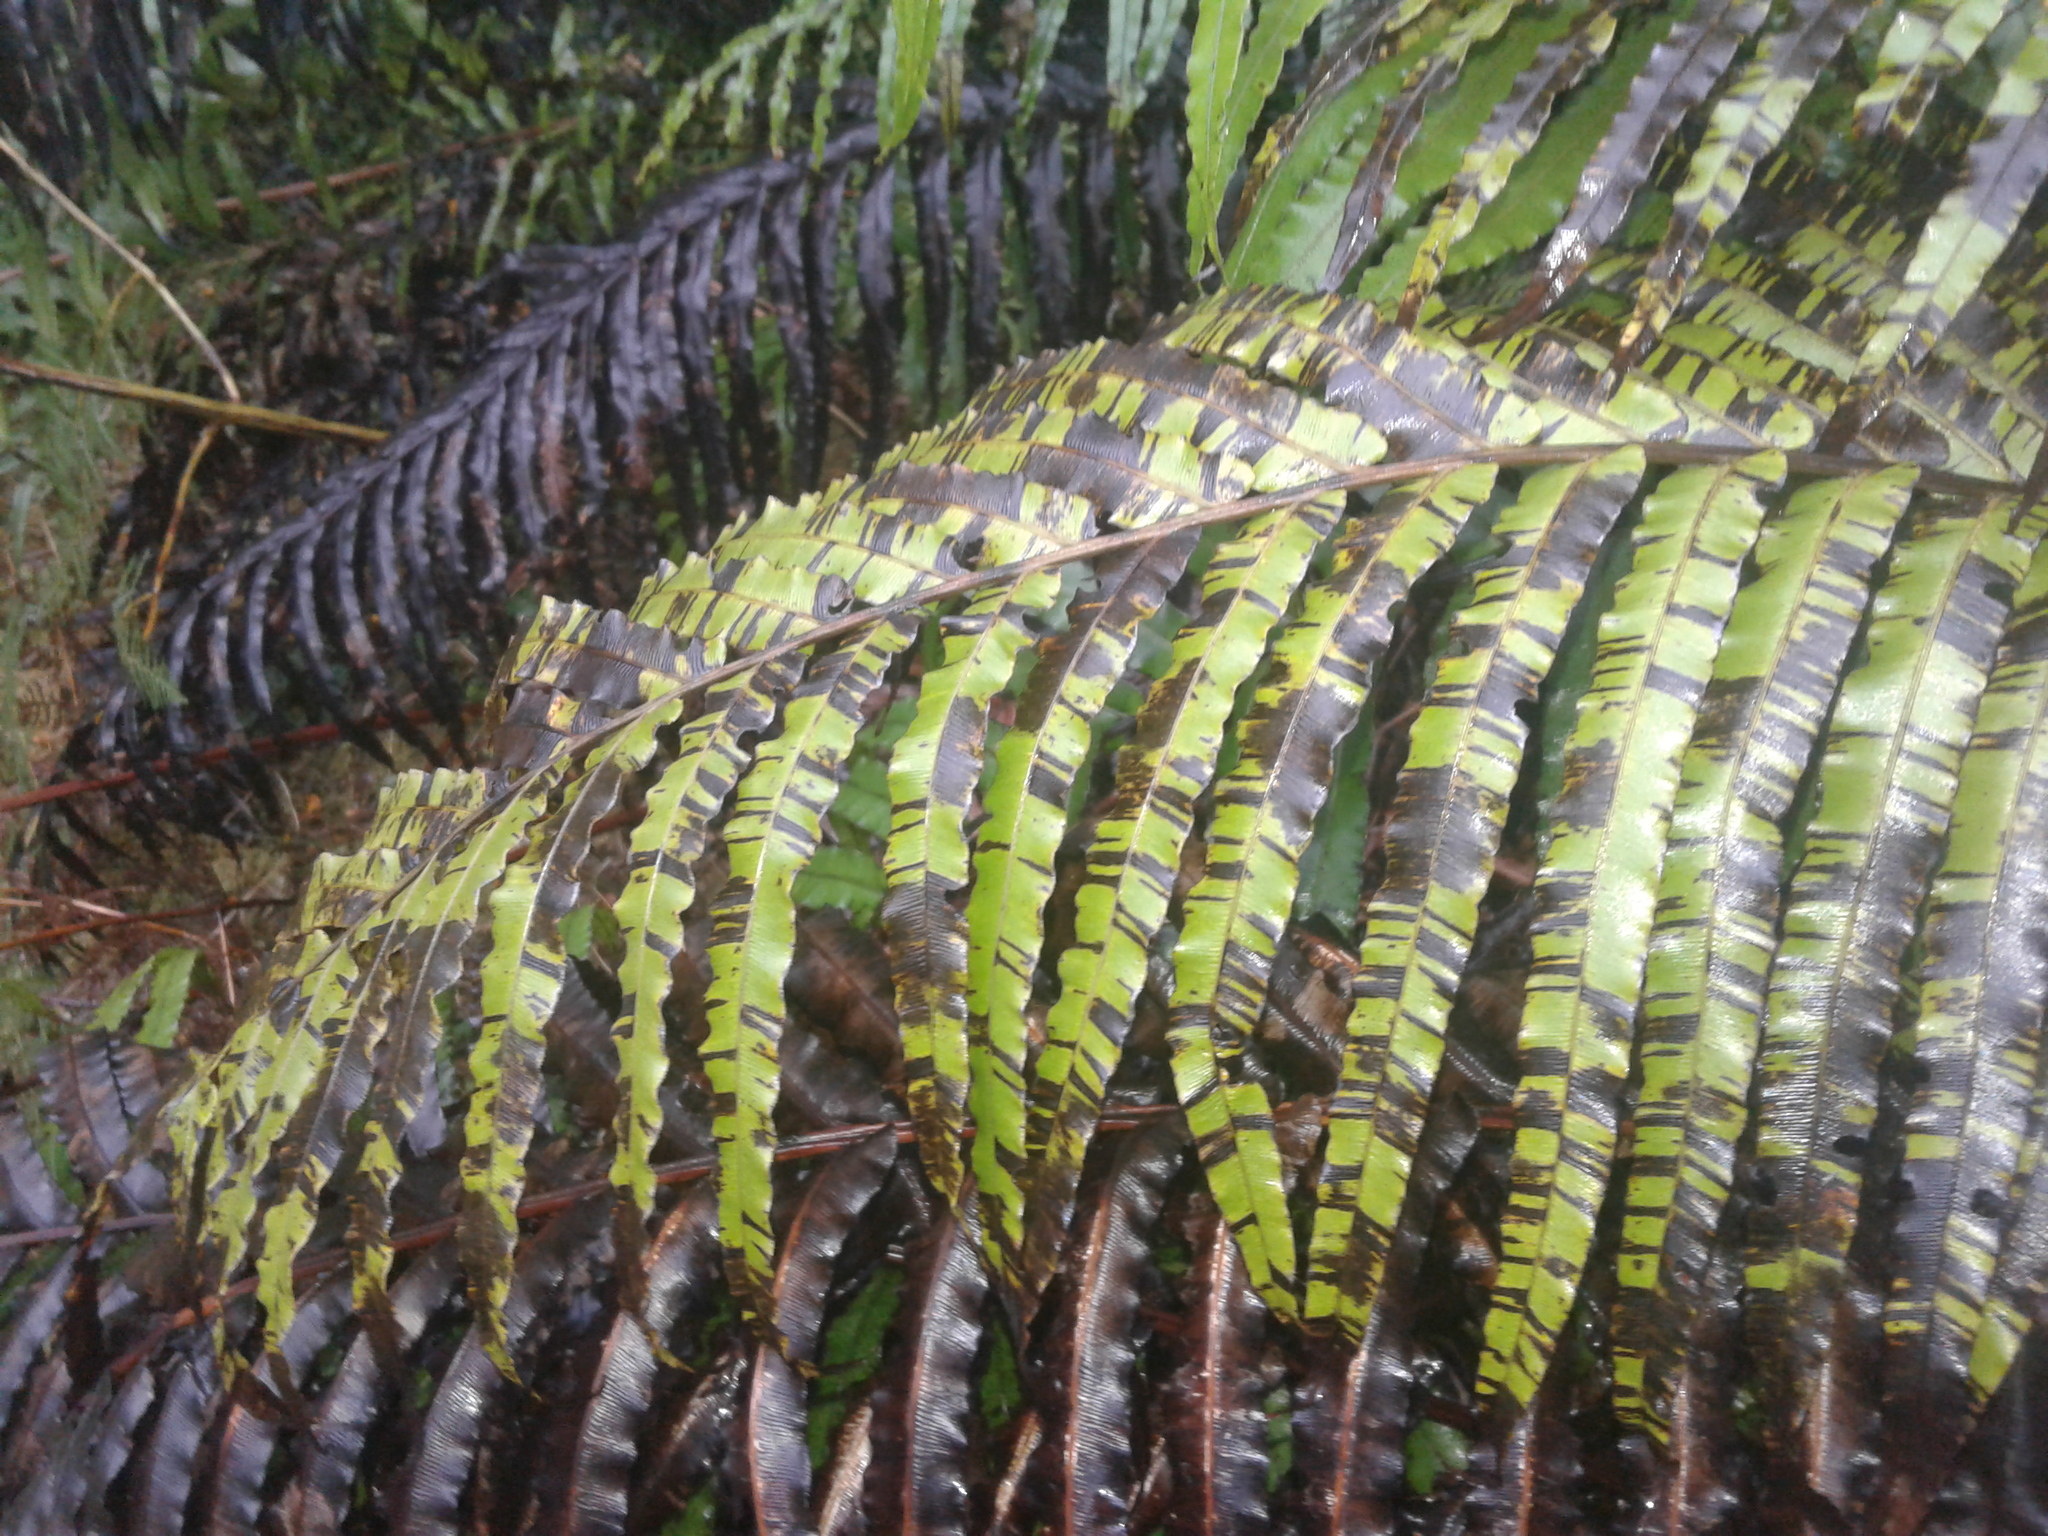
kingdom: Plantae
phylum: Tracheophyta
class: Polypodiopsida
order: Polypodiales
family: Blechnaceae
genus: Parablechnum
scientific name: Parablechnum novae-zelandiae
